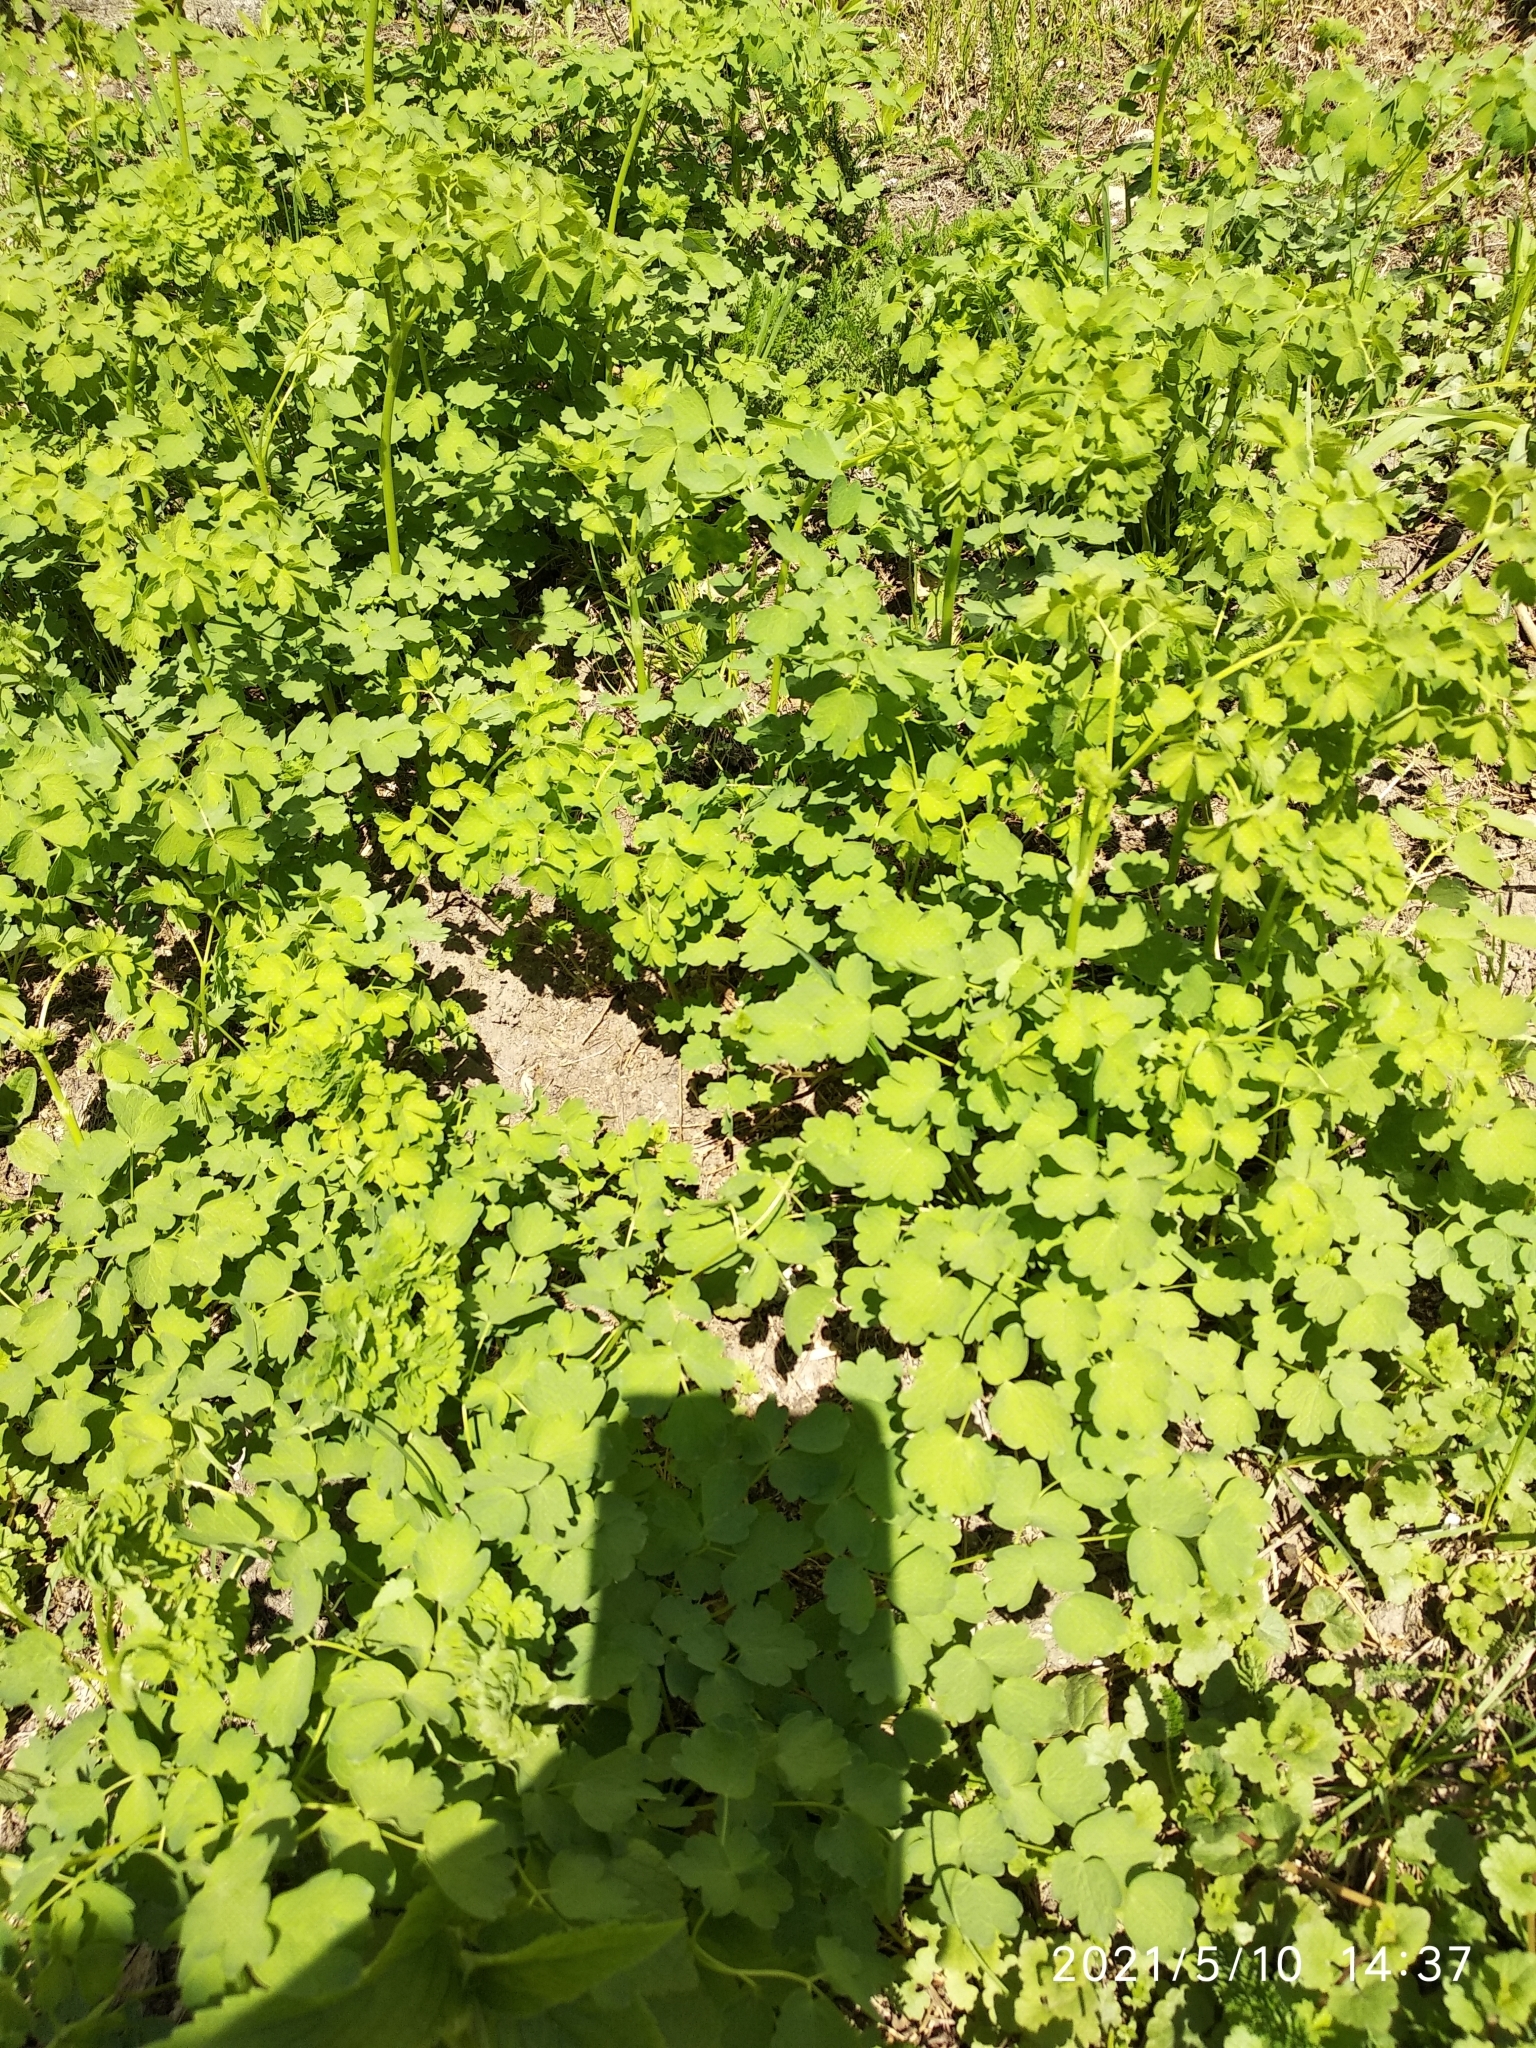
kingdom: Plantae
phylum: Tracheophyta
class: Magnoliopsida
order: Ranunculales
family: Ranunculaceae
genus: Thalictrum
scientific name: Thalictrum minus
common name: Lesser meadow-rue
